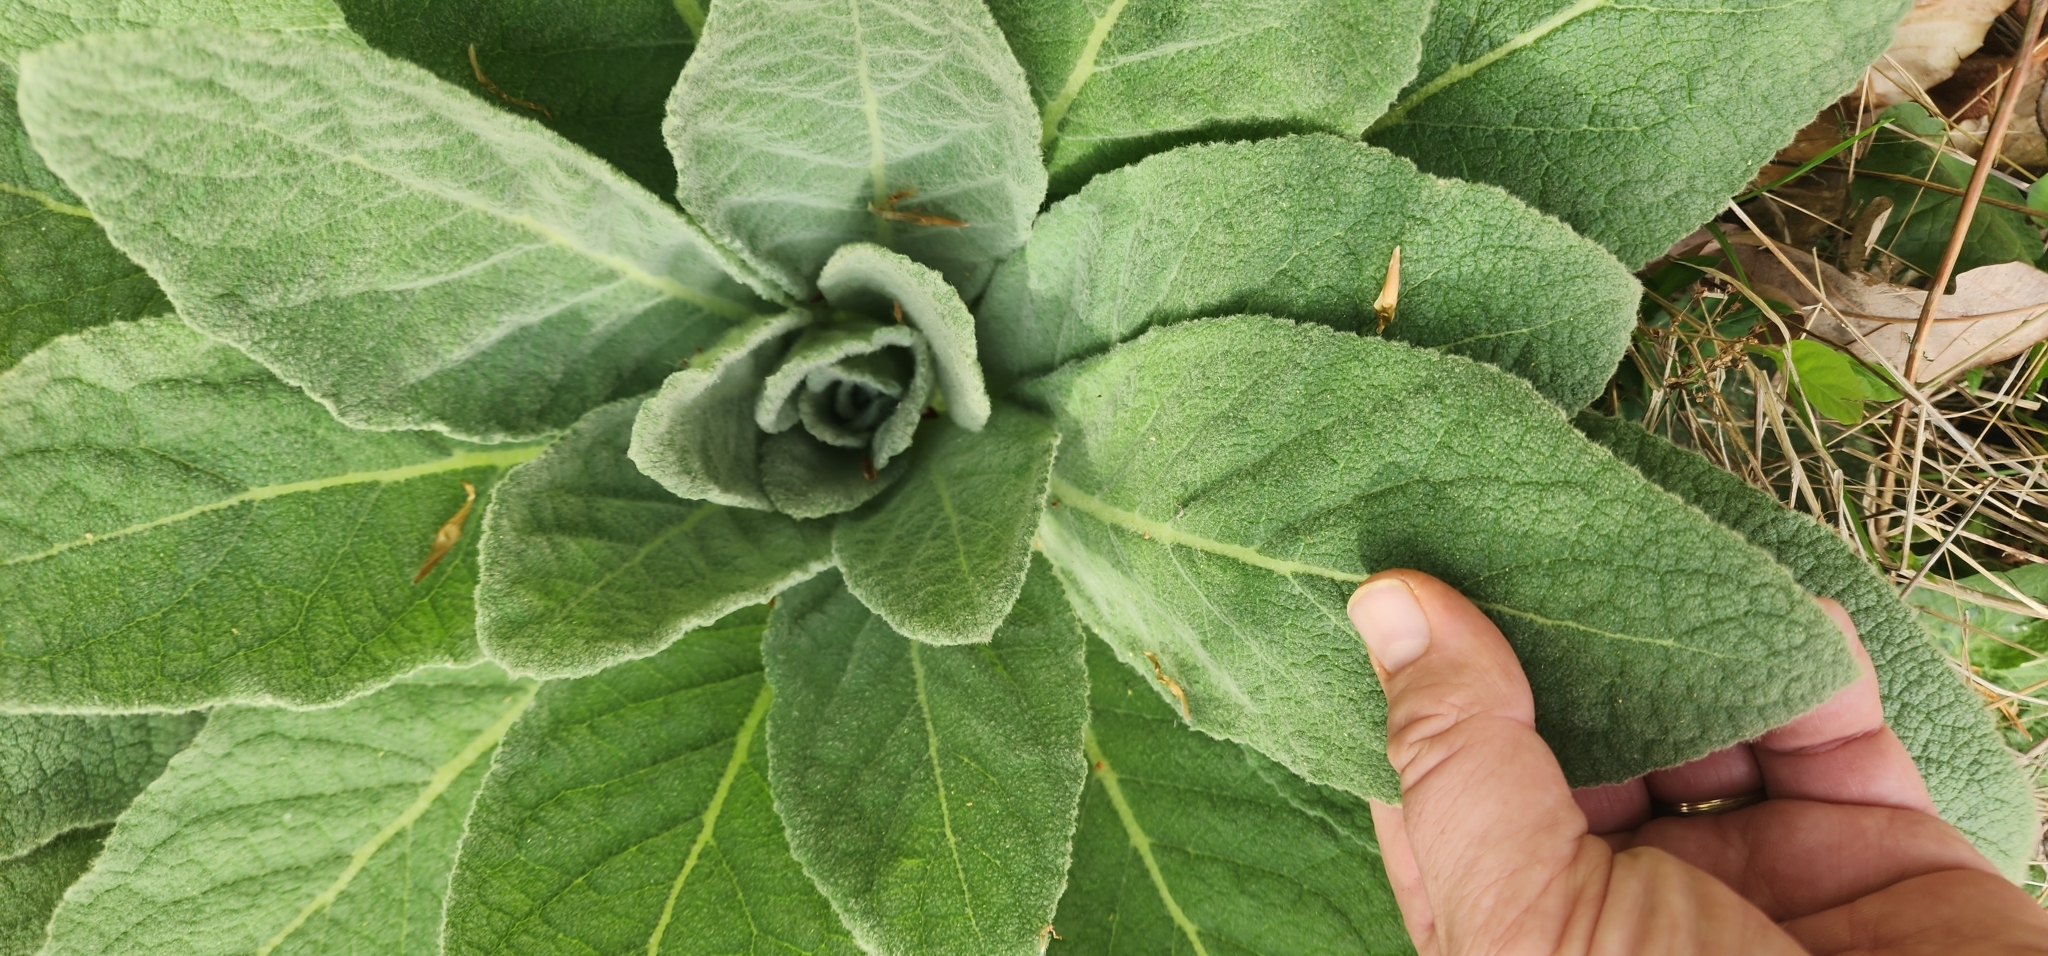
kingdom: Plantae
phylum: Tracheophyta
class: Magnoliopsida
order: Lamiales
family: Scrophulariaceae
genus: Verbascum
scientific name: Verbascum thapsus
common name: Common mullein
